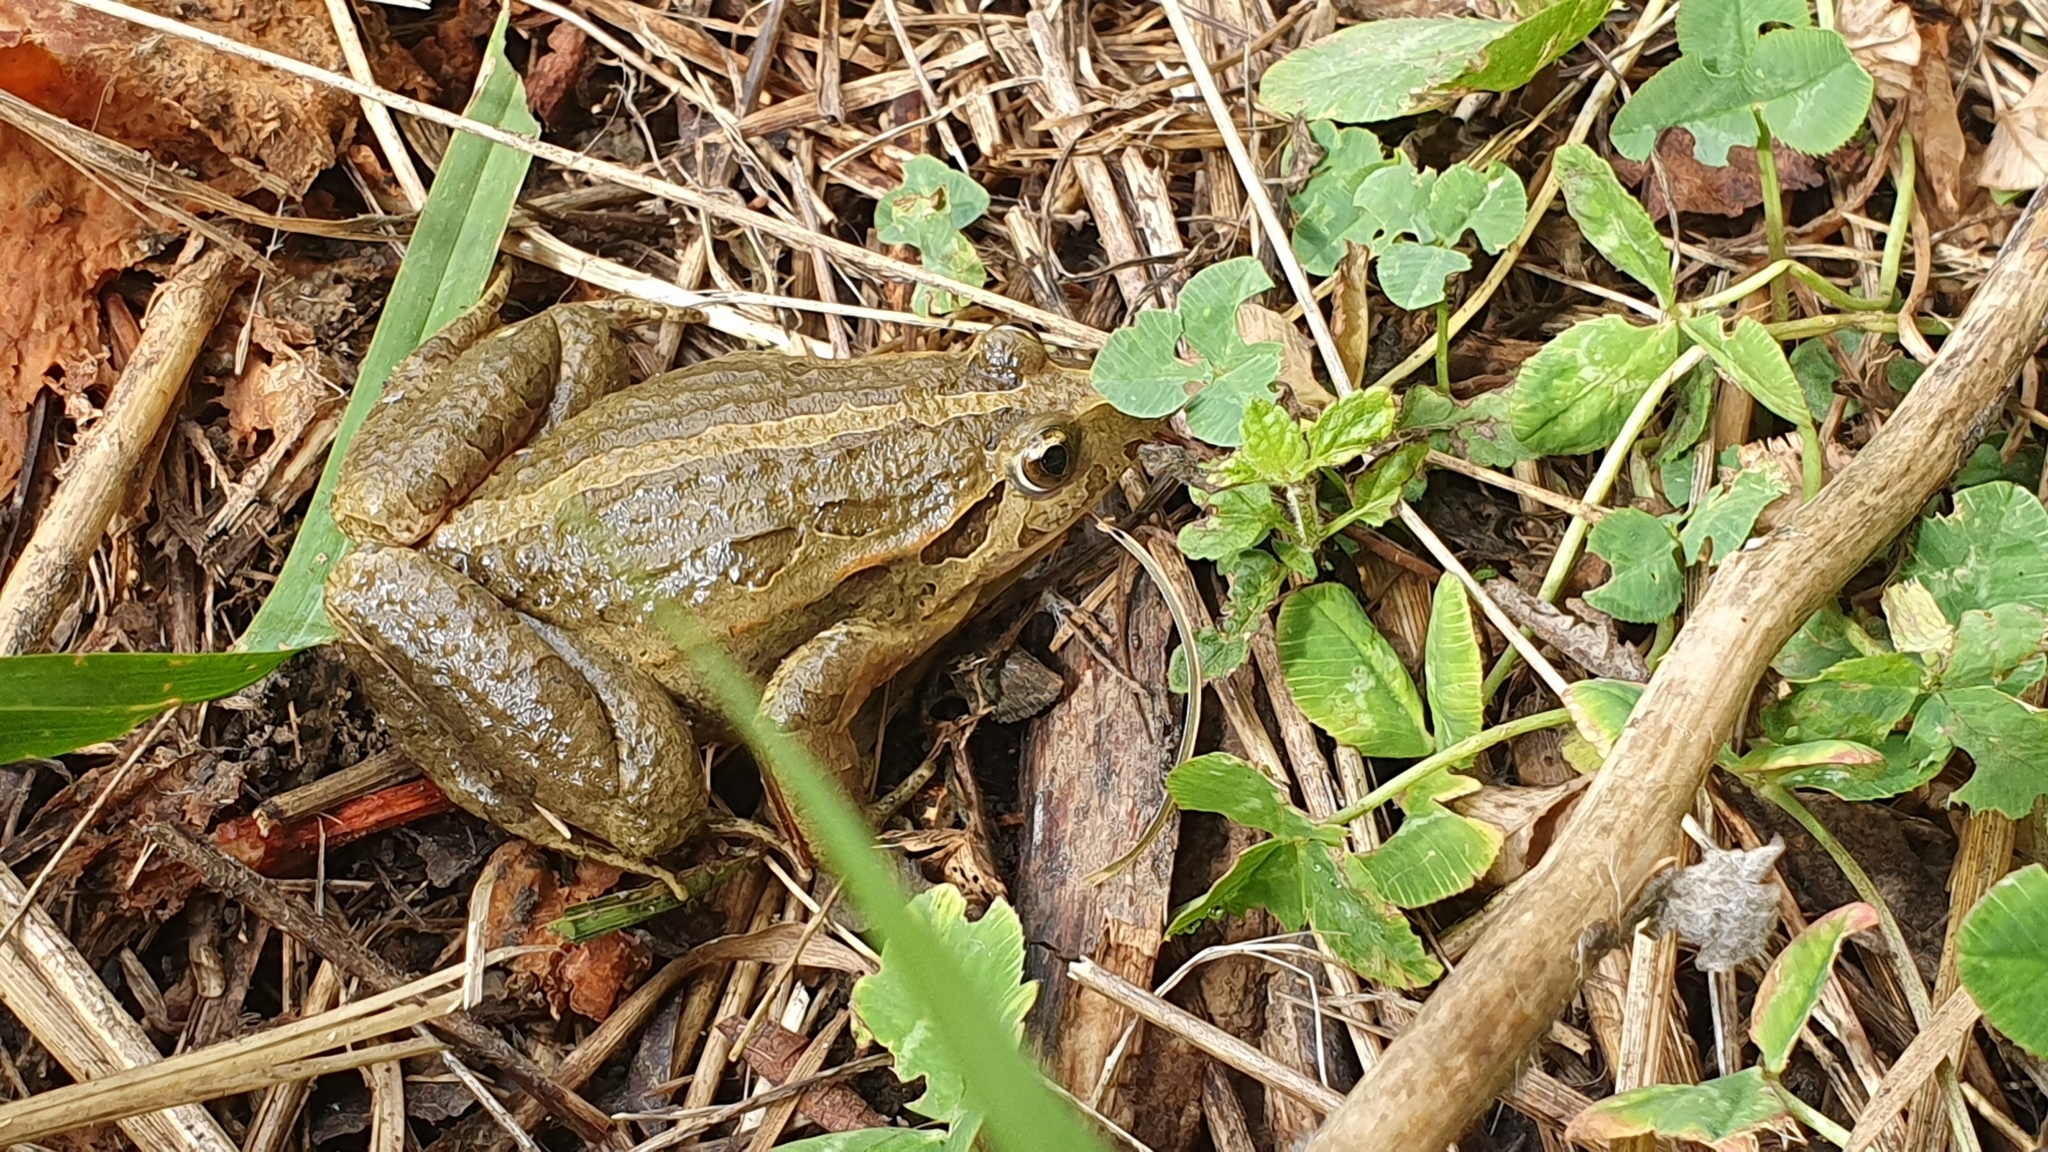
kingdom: Animalia
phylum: Chordata
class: Amphibia
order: Anura
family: Alytidae
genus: Discoglossus
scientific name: Discoglossus galganoi
